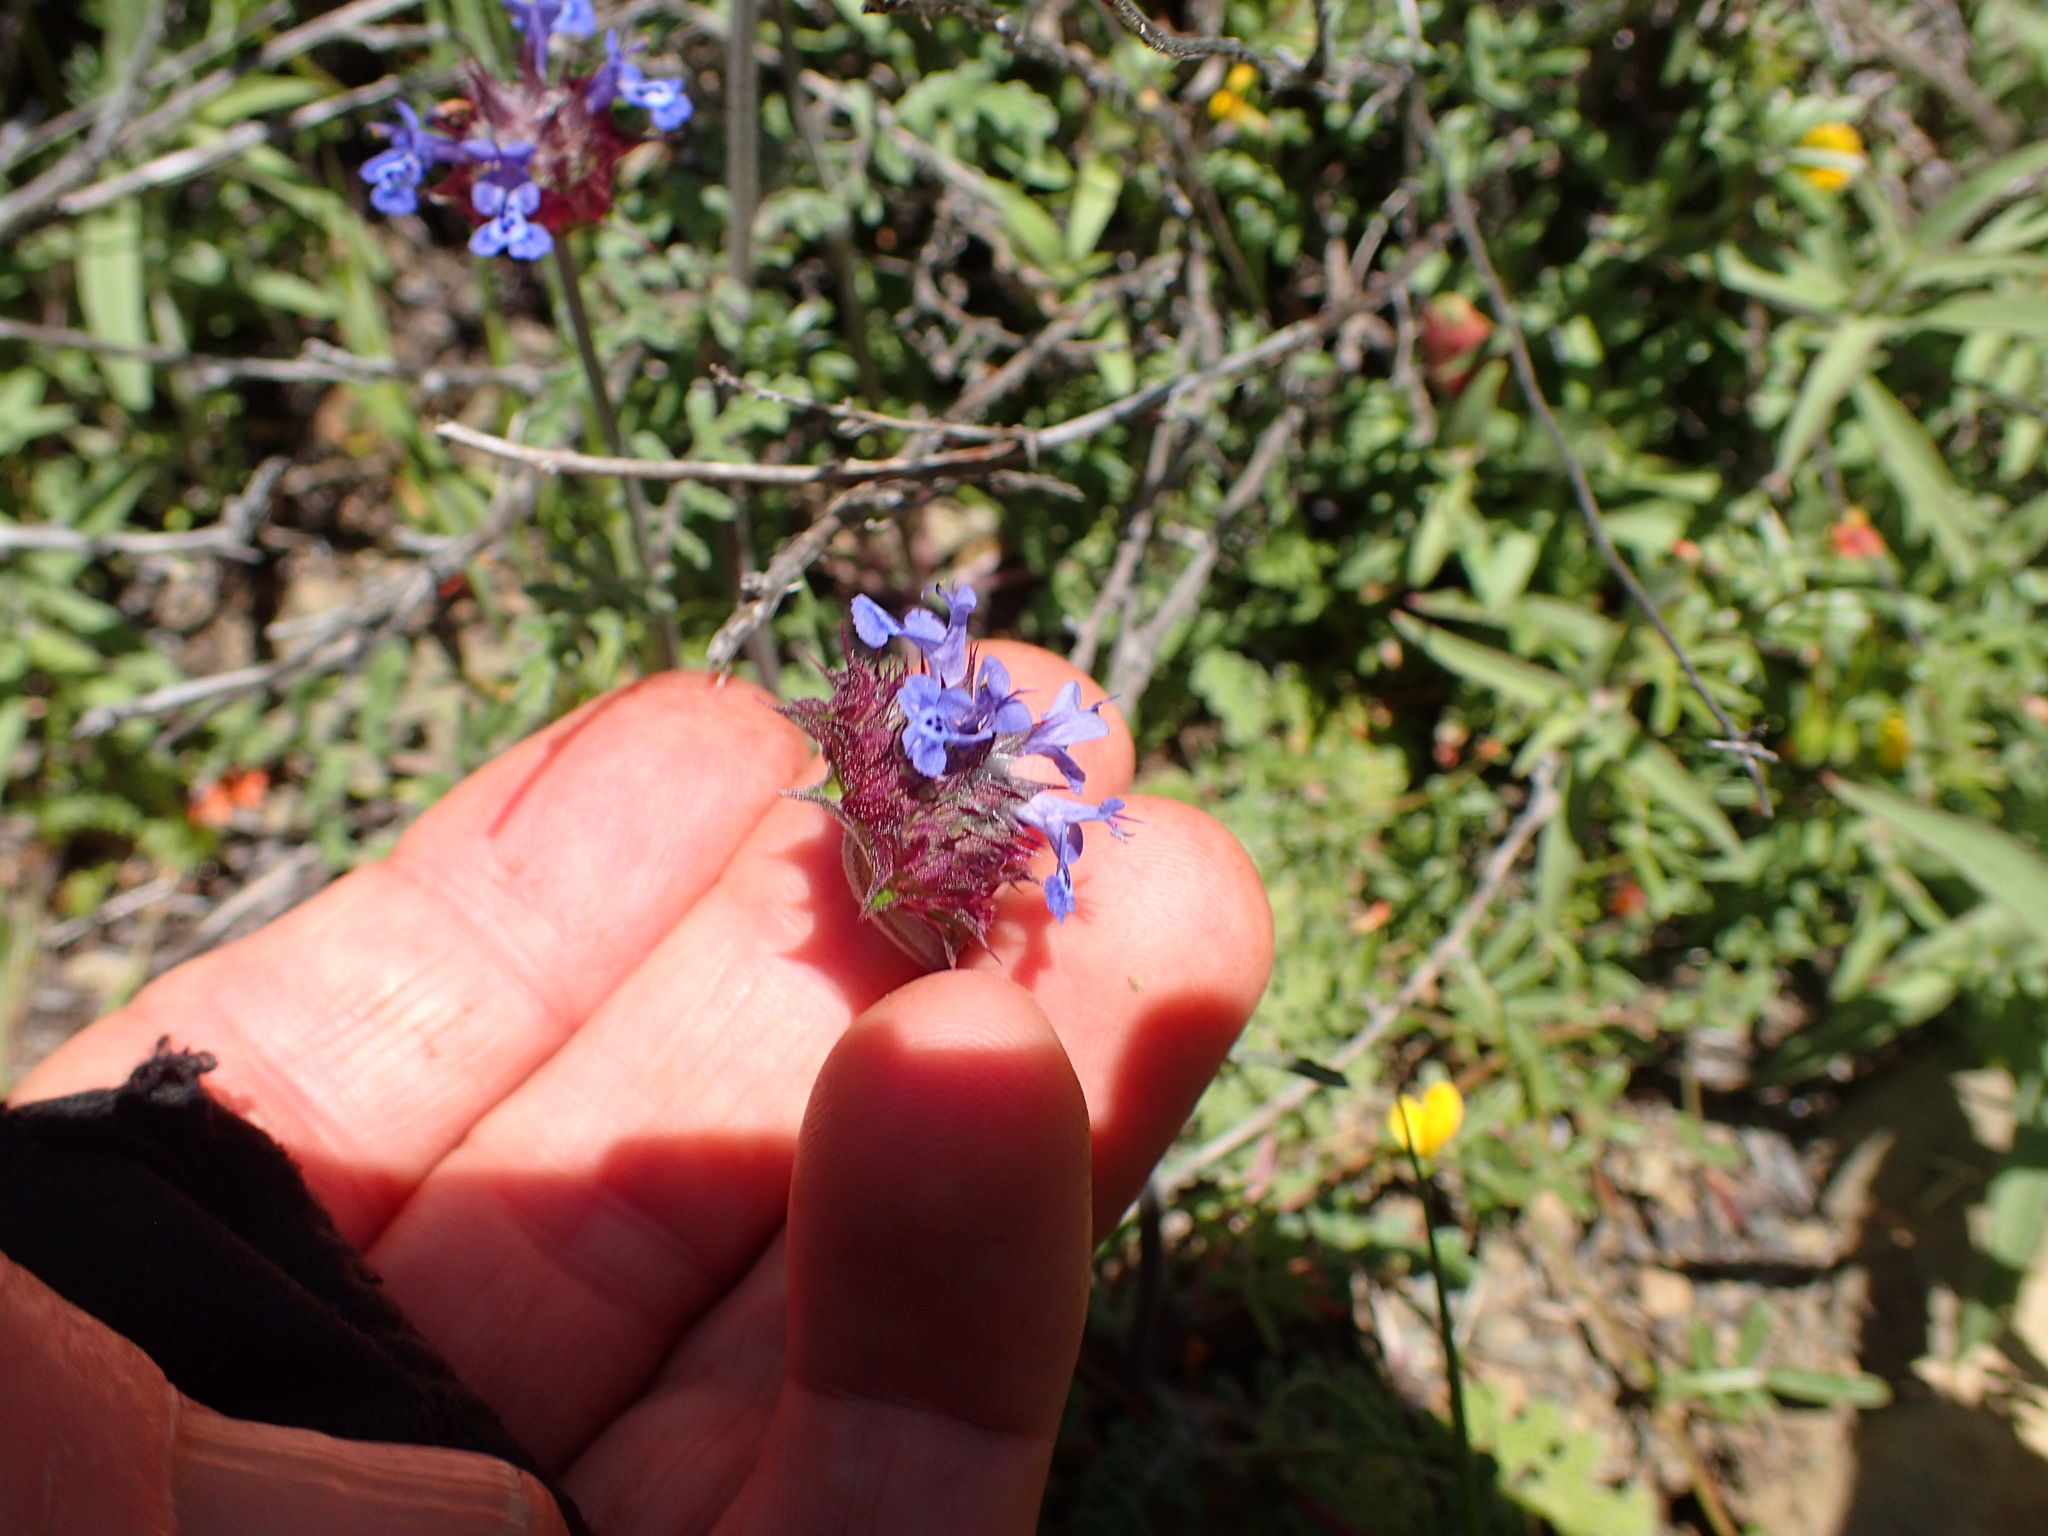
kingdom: Plantae
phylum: Tracheophyta
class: Magnoliopsida
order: Lamiales
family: Lamiaceae
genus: Salvia
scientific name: Salvia columbariae
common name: Chia
